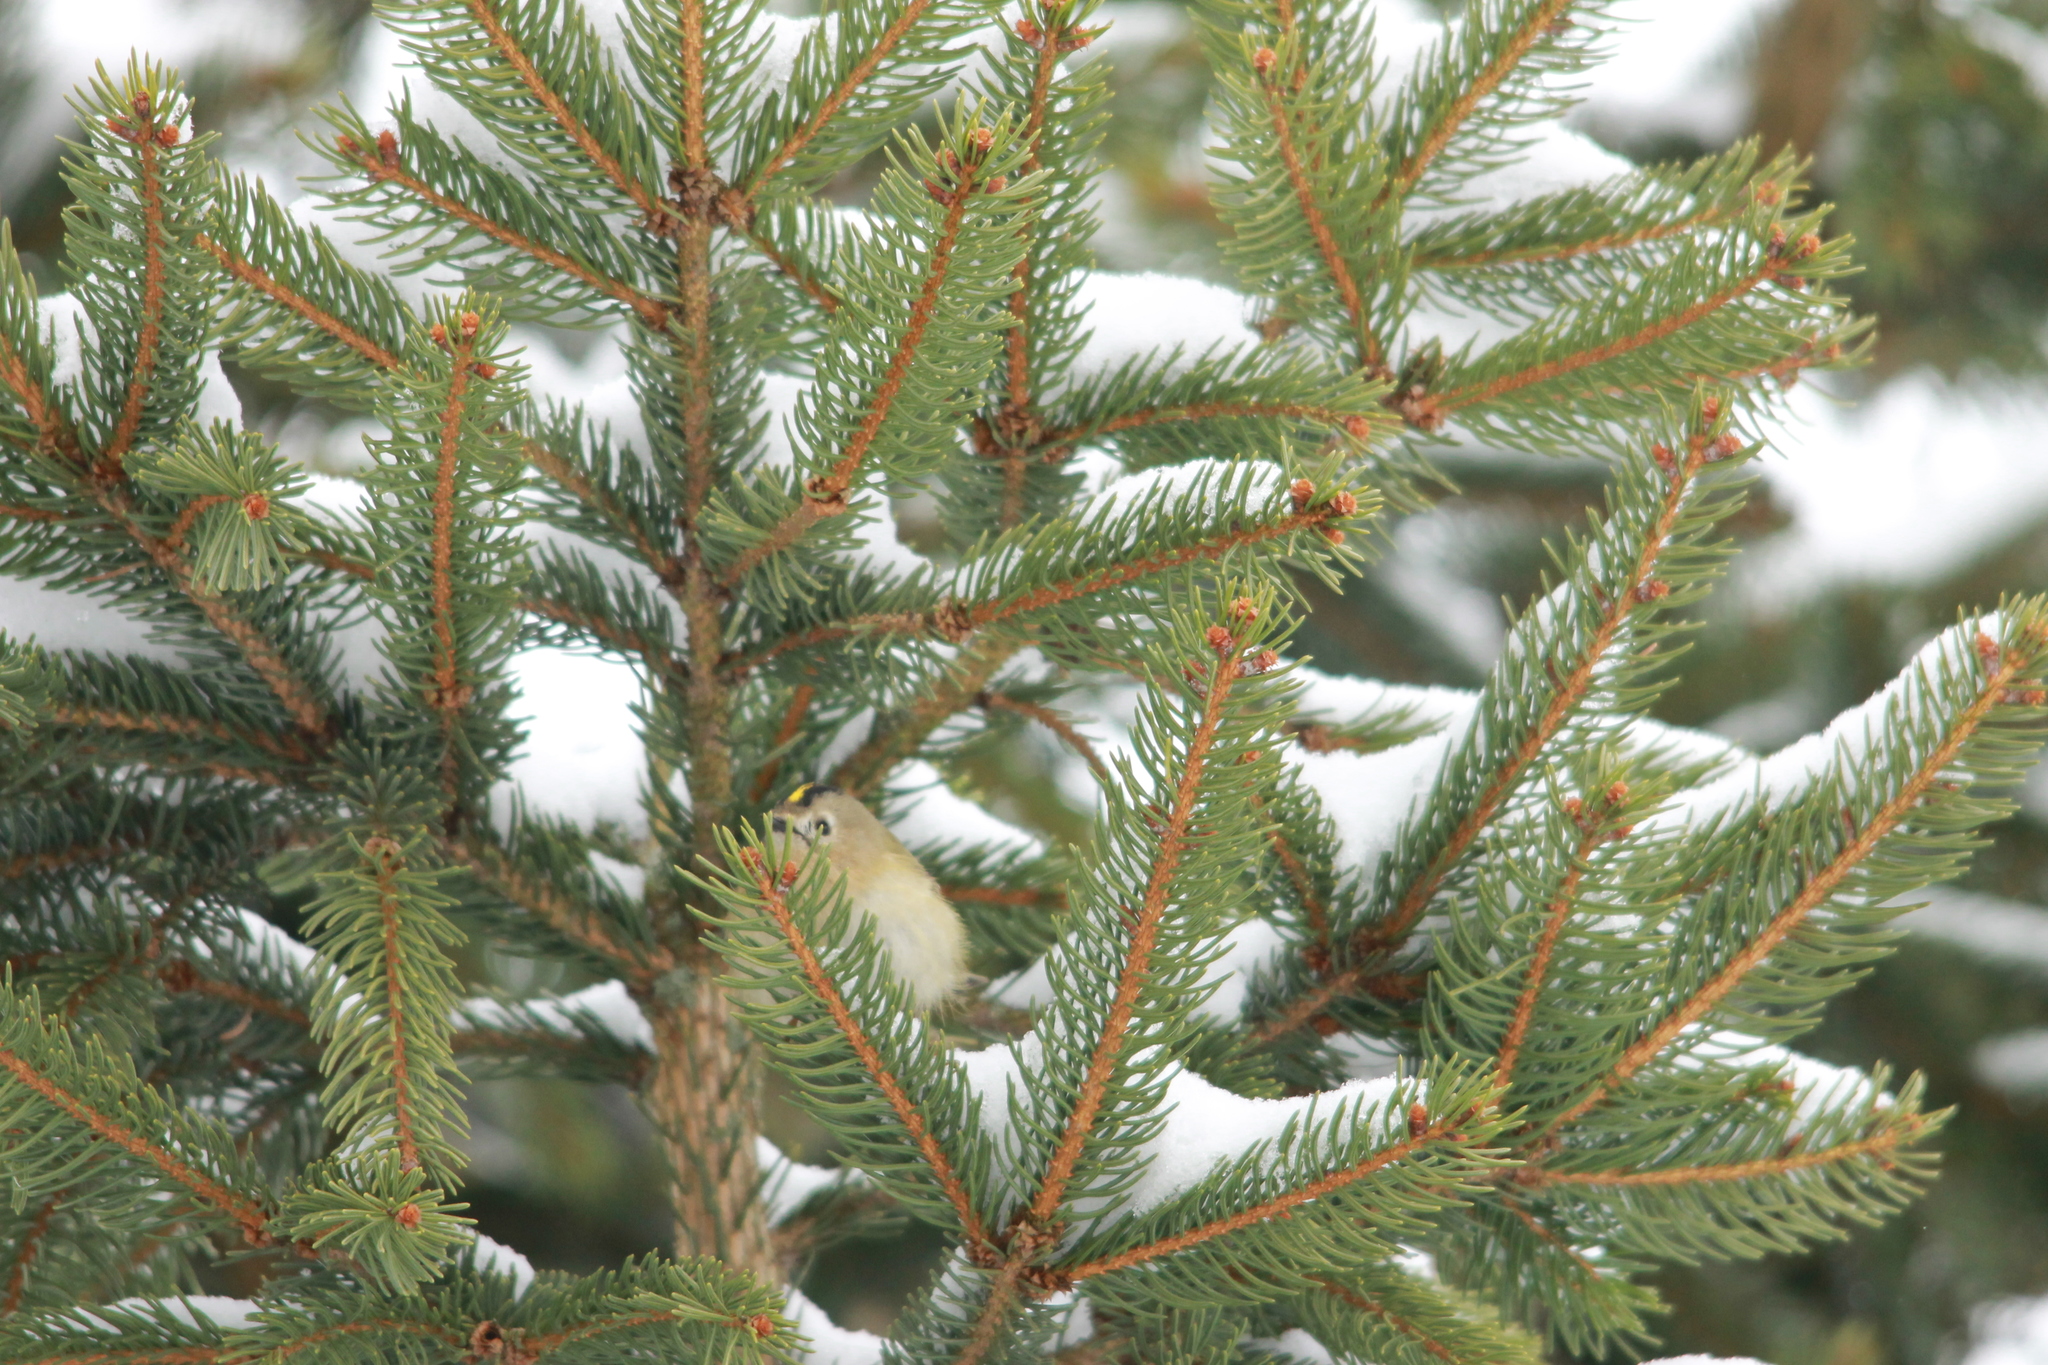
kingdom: Animalia
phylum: Chordata
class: Aves
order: Passeriformes
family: Regulidae
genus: Regulus
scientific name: Regulus regulus
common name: Goldcrest
